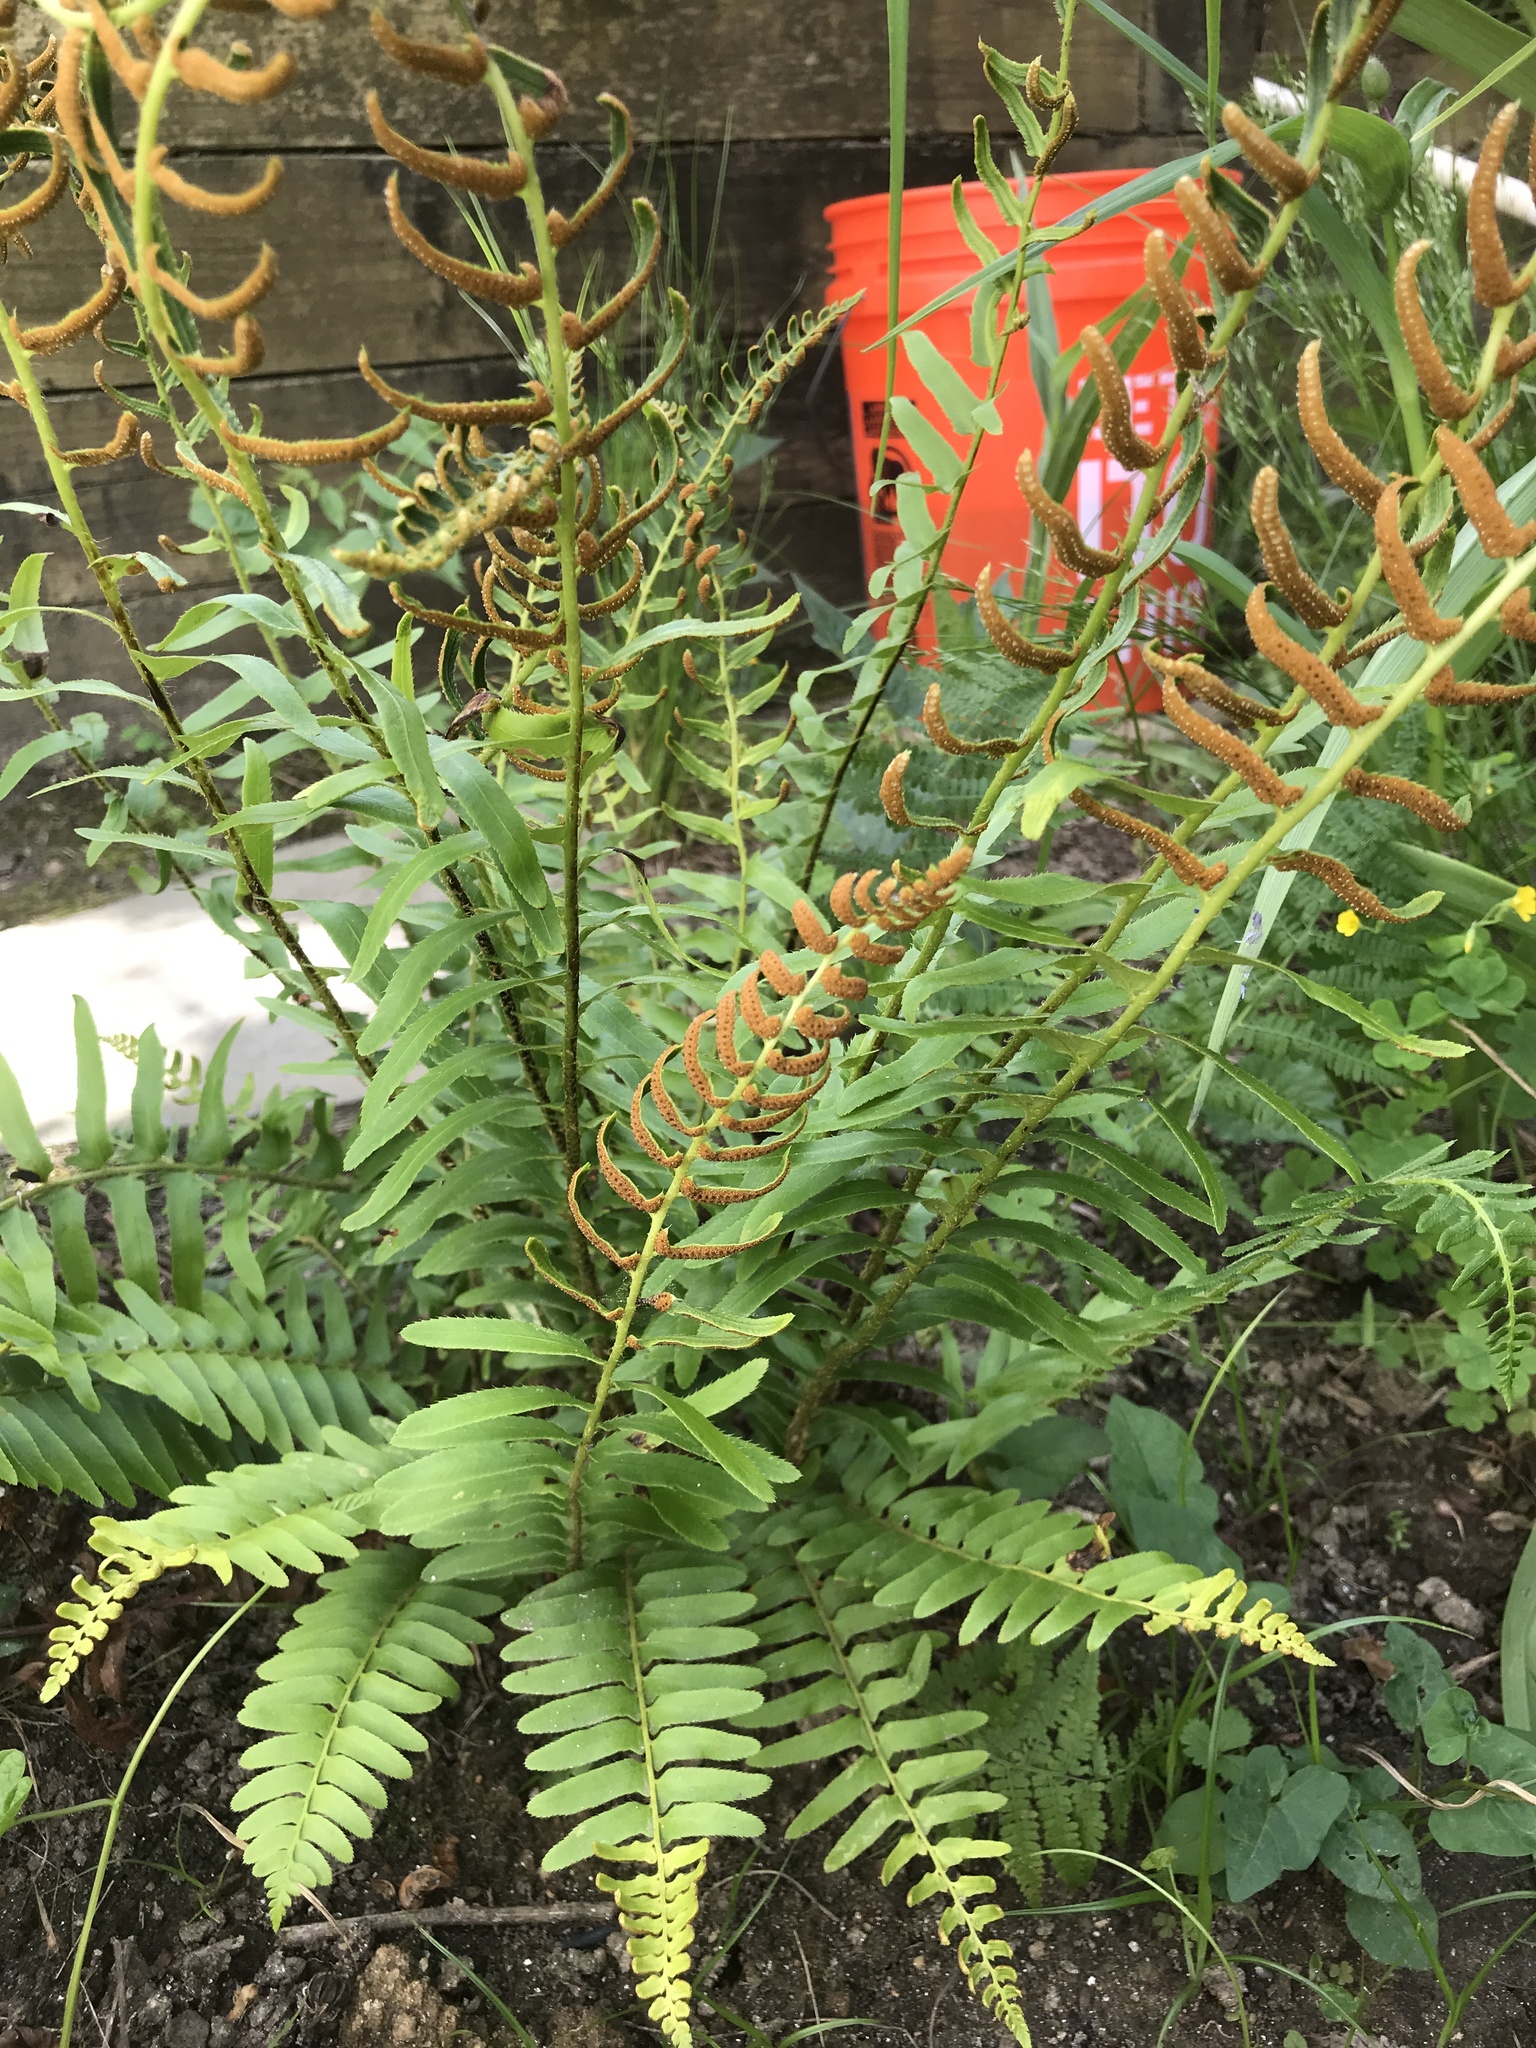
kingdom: Plantae
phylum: Tracheophyta
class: Polypodiopsida
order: Polypodiales
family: Dryopteridaceae
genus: Polystichum
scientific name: Polystichum acrostichoides
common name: Christmas fern
